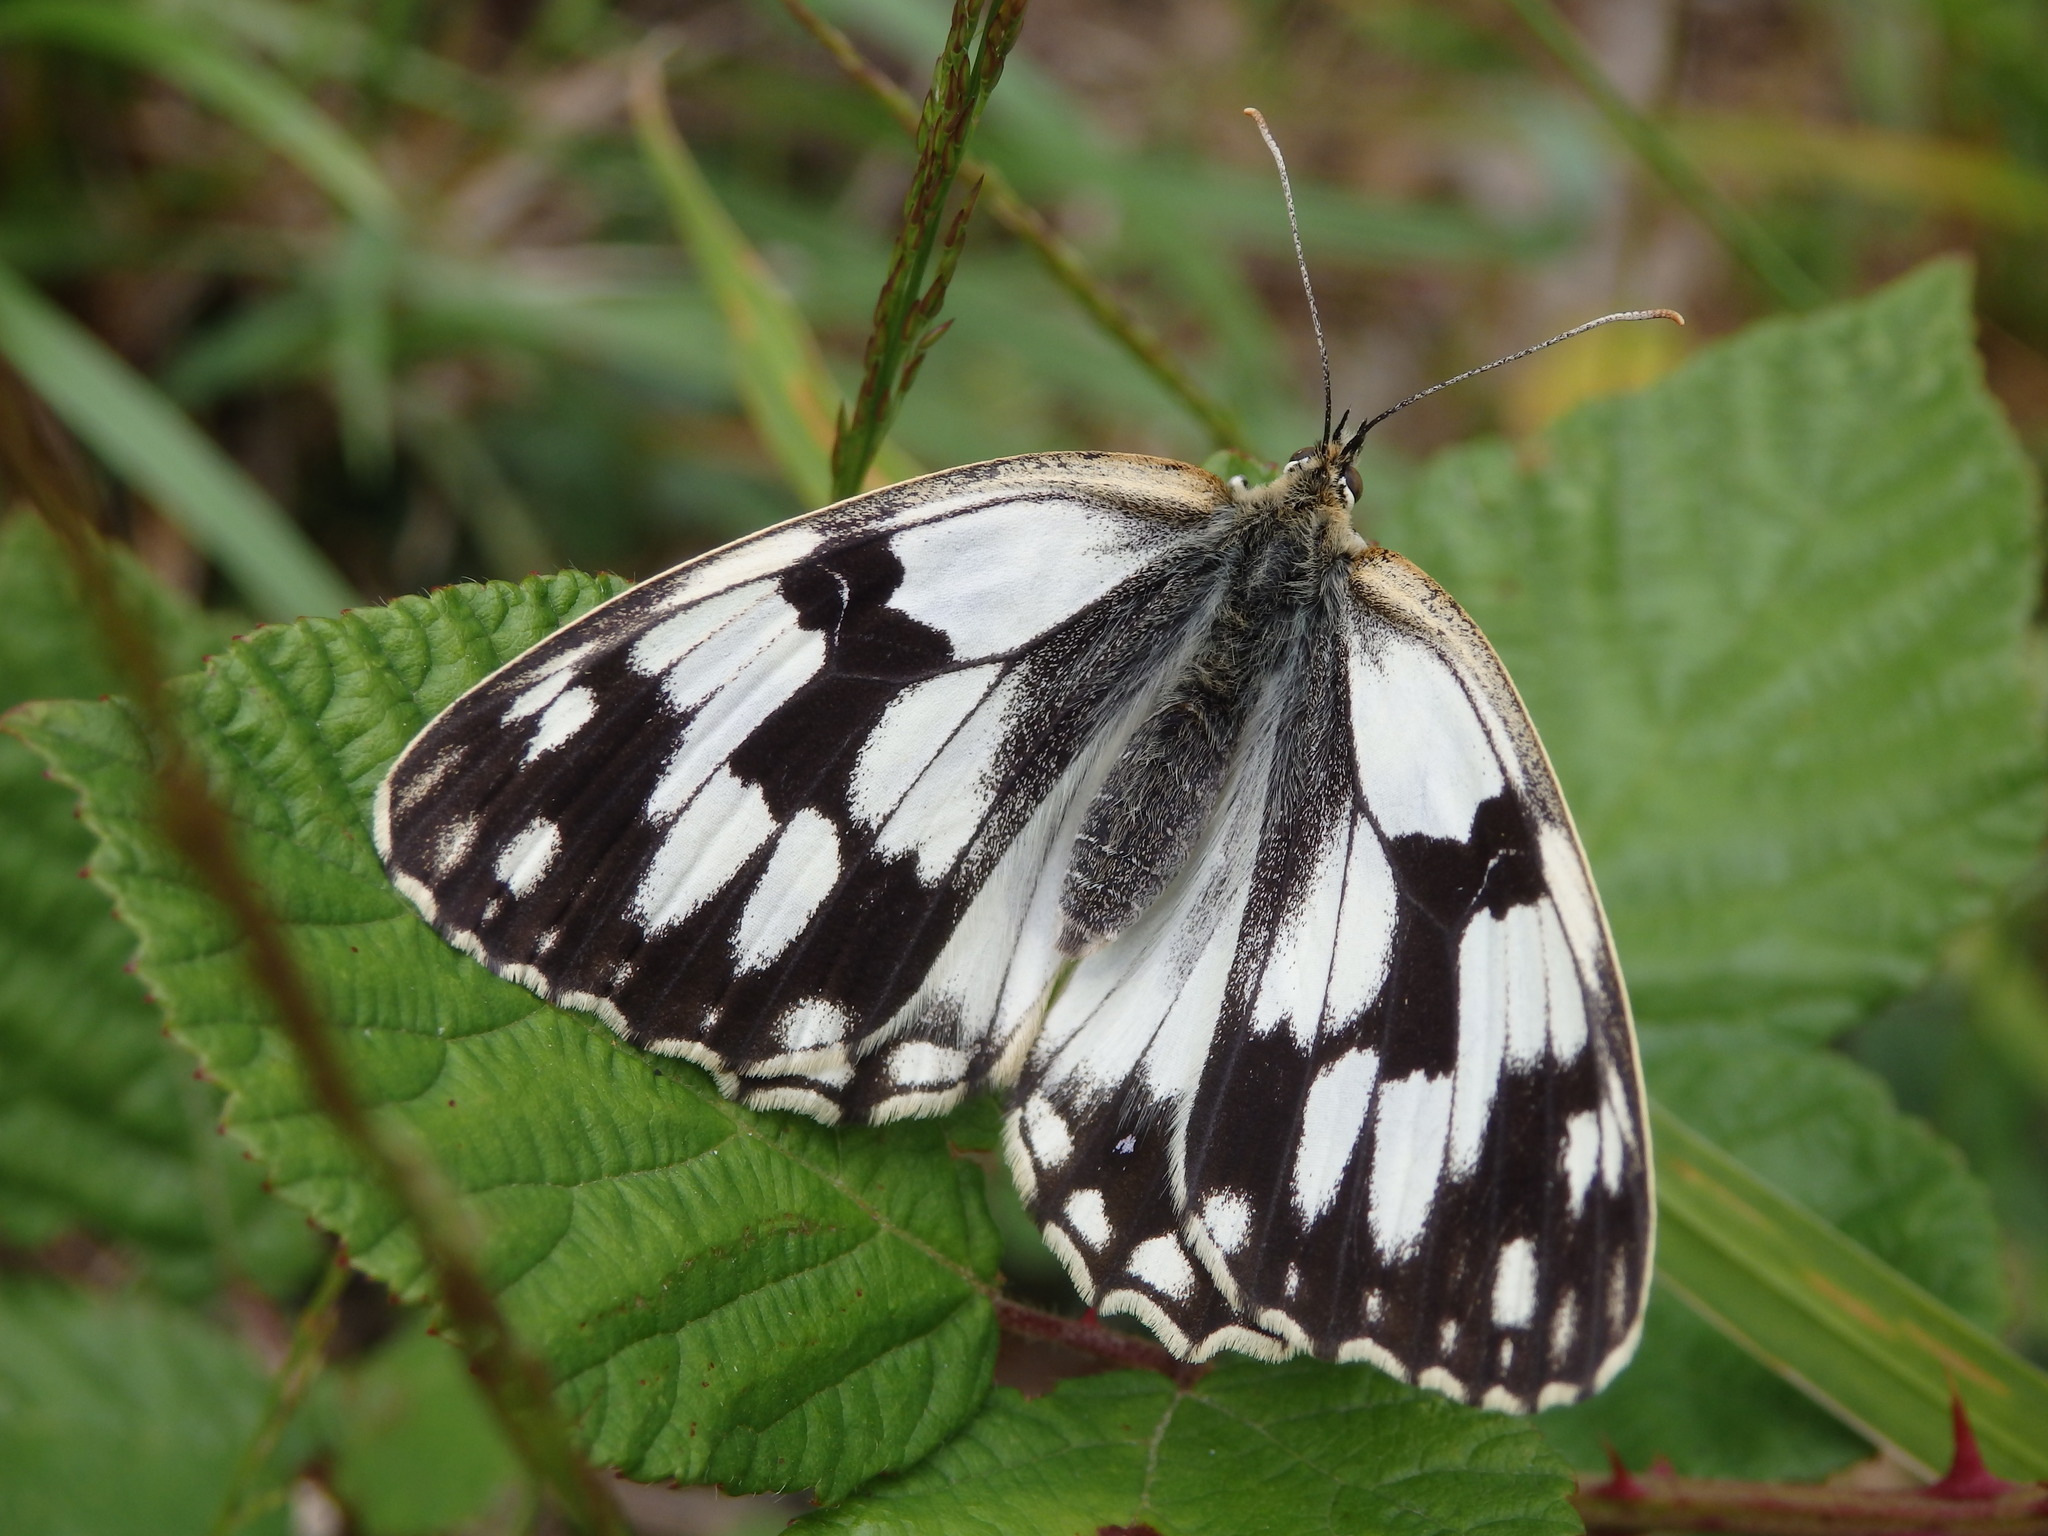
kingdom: Animalia
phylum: Arthropoda
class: Insecta
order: Lepidoptera
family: Nymphalidae
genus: Melanargia
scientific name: Melanargia lachesis
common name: Iberian marbled white
